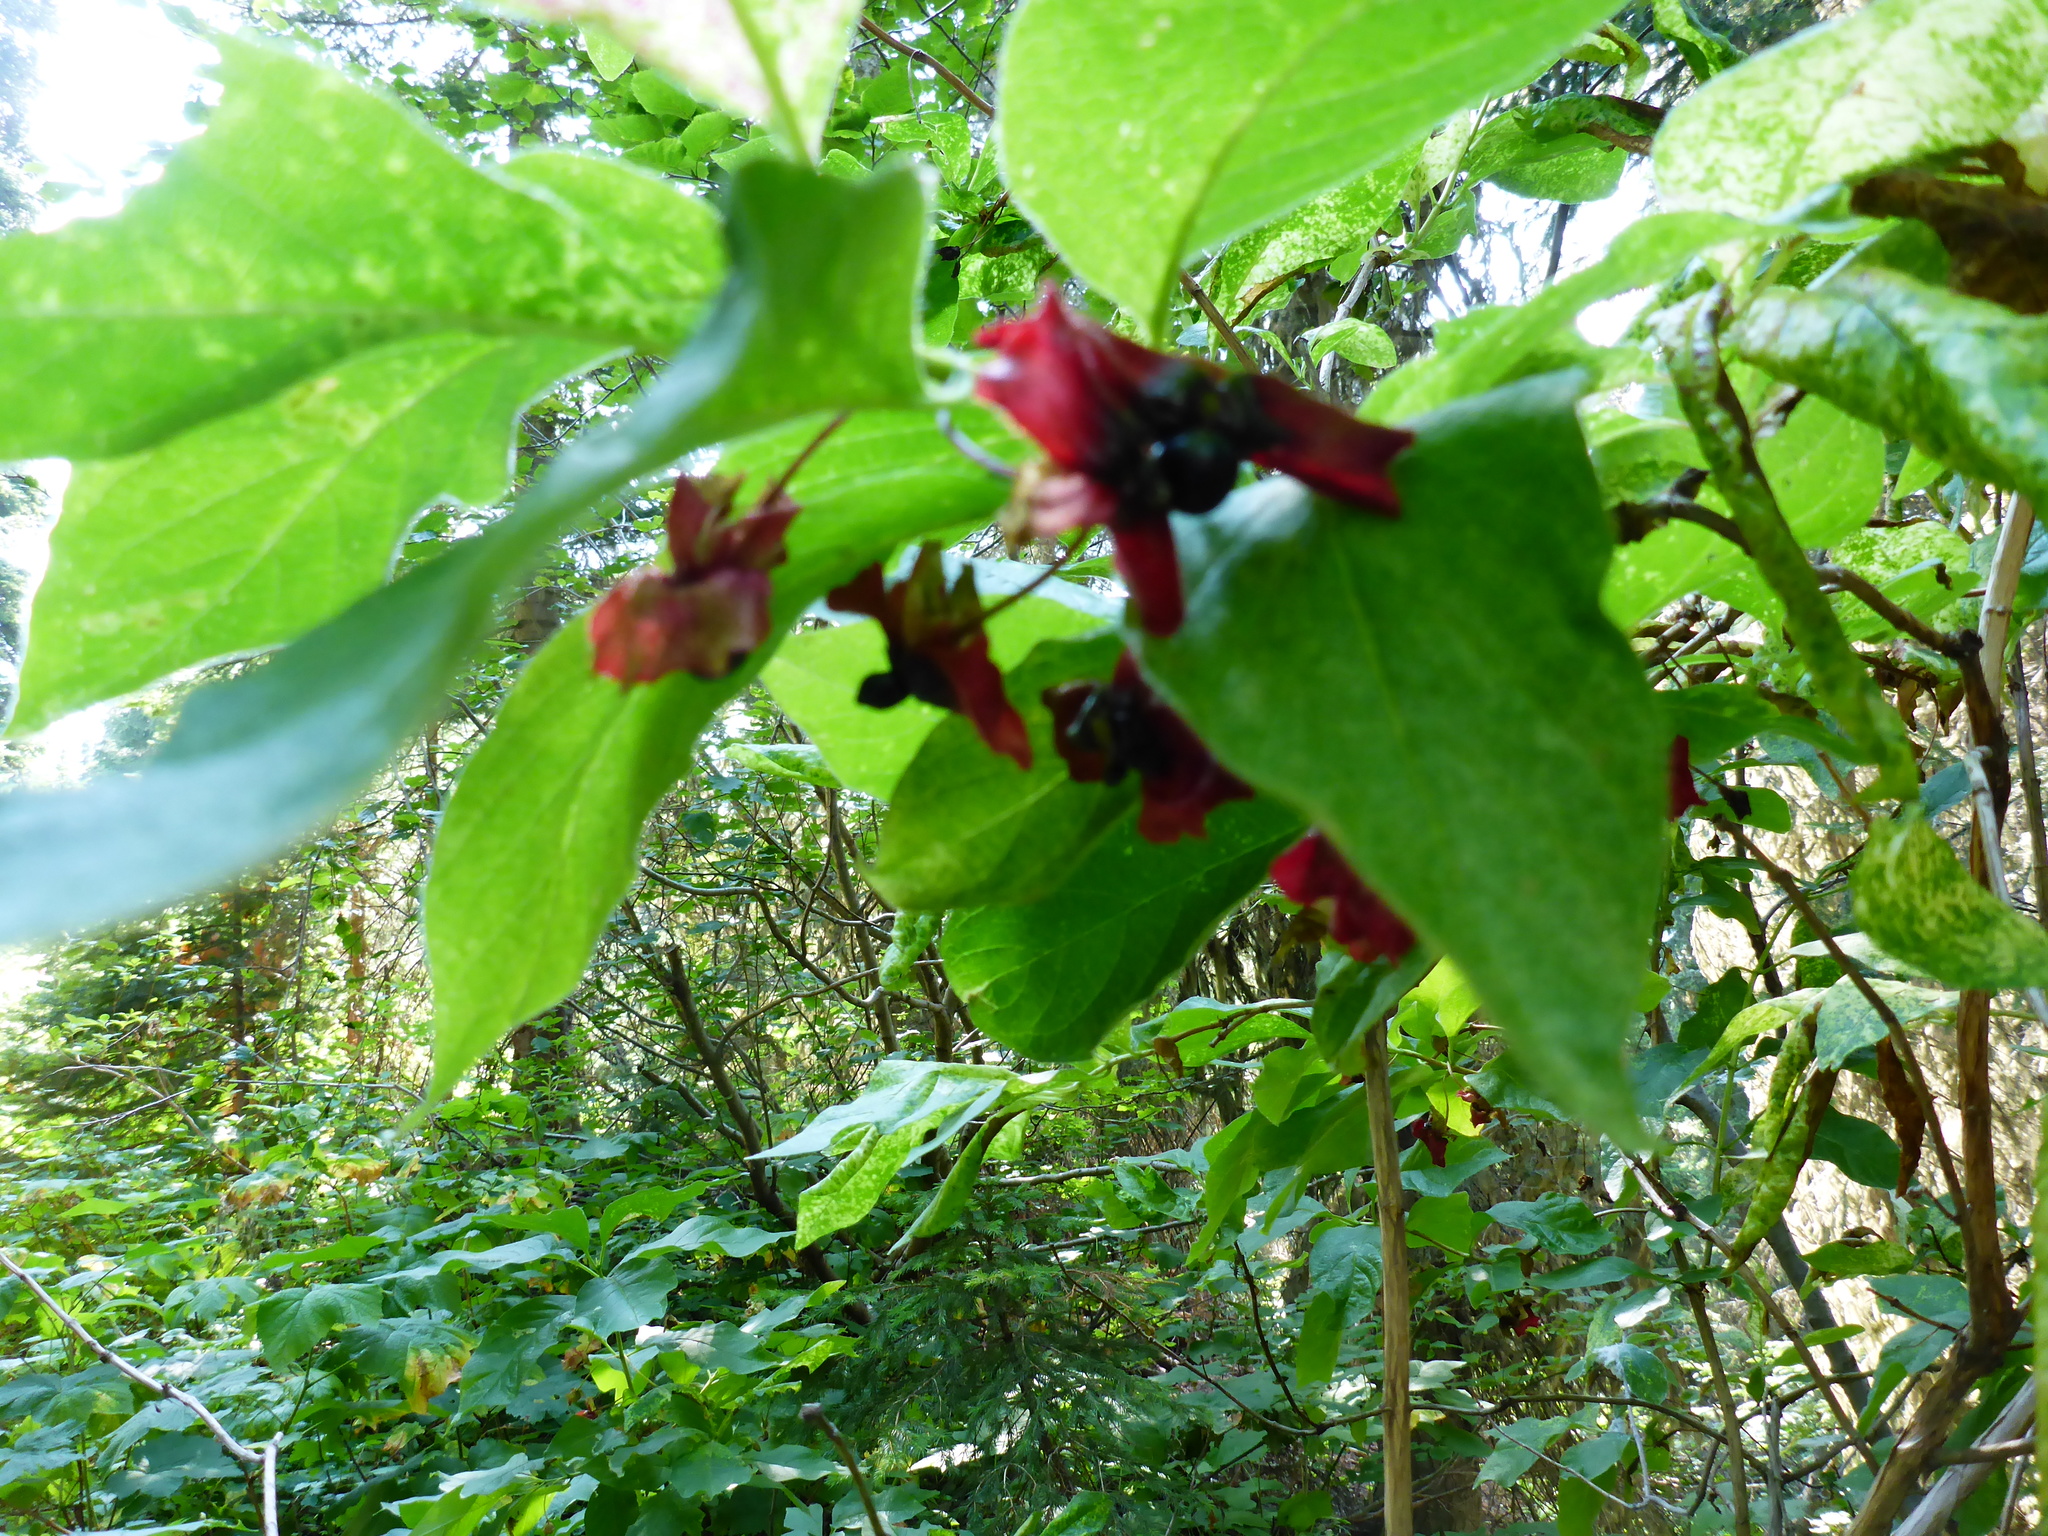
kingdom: Plantae
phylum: Tracheophyta
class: Magnoliopsida
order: Dipsacales
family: Caprifoliaceae
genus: Lonicera
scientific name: Lonicera involucrata
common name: Californian honeysuckle
